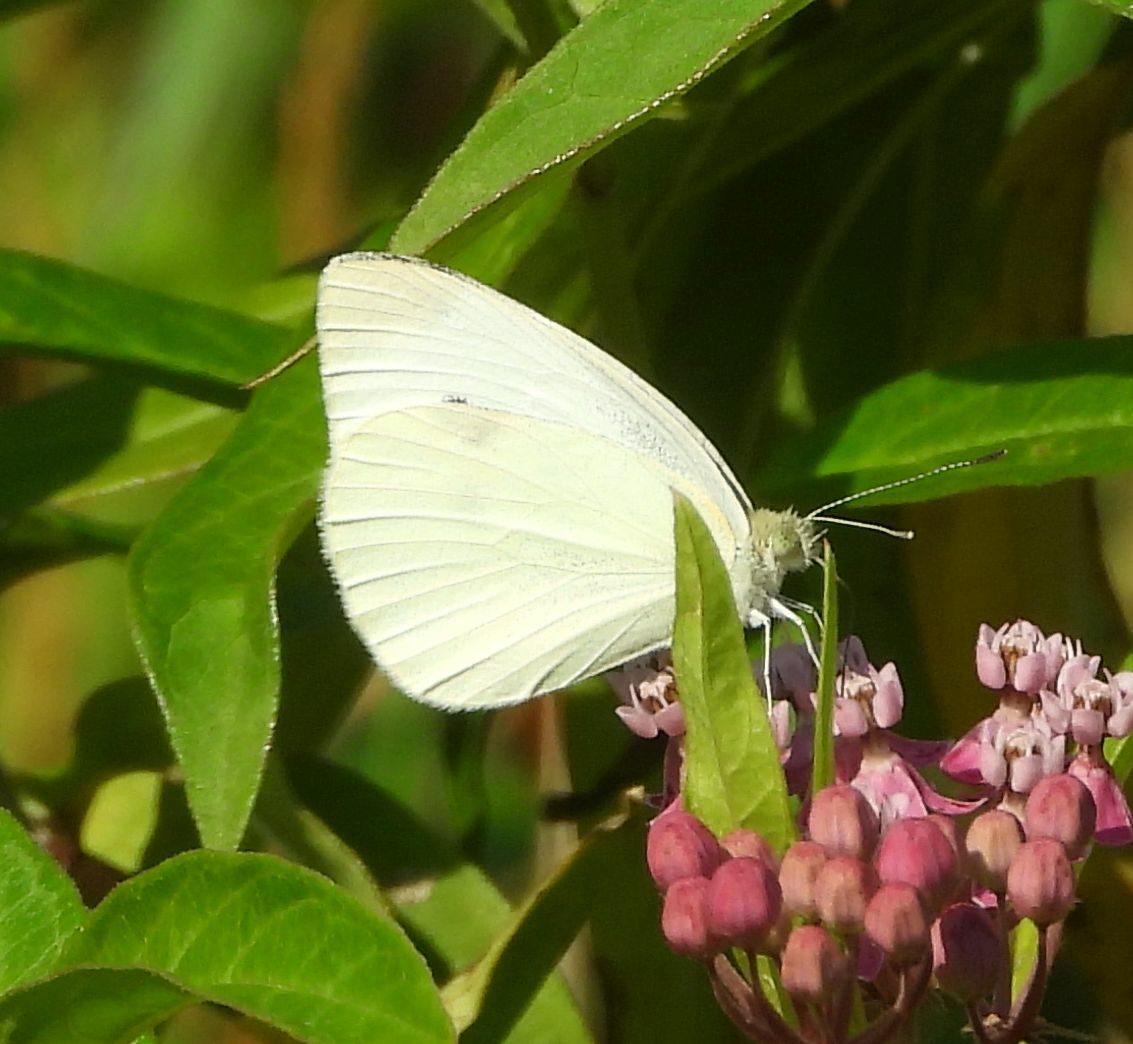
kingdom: Animalia
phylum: Arthropoda
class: Insecta
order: Lepidoptera
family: Pieridae
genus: Pieris
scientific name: Pieris rapae
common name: Small white
